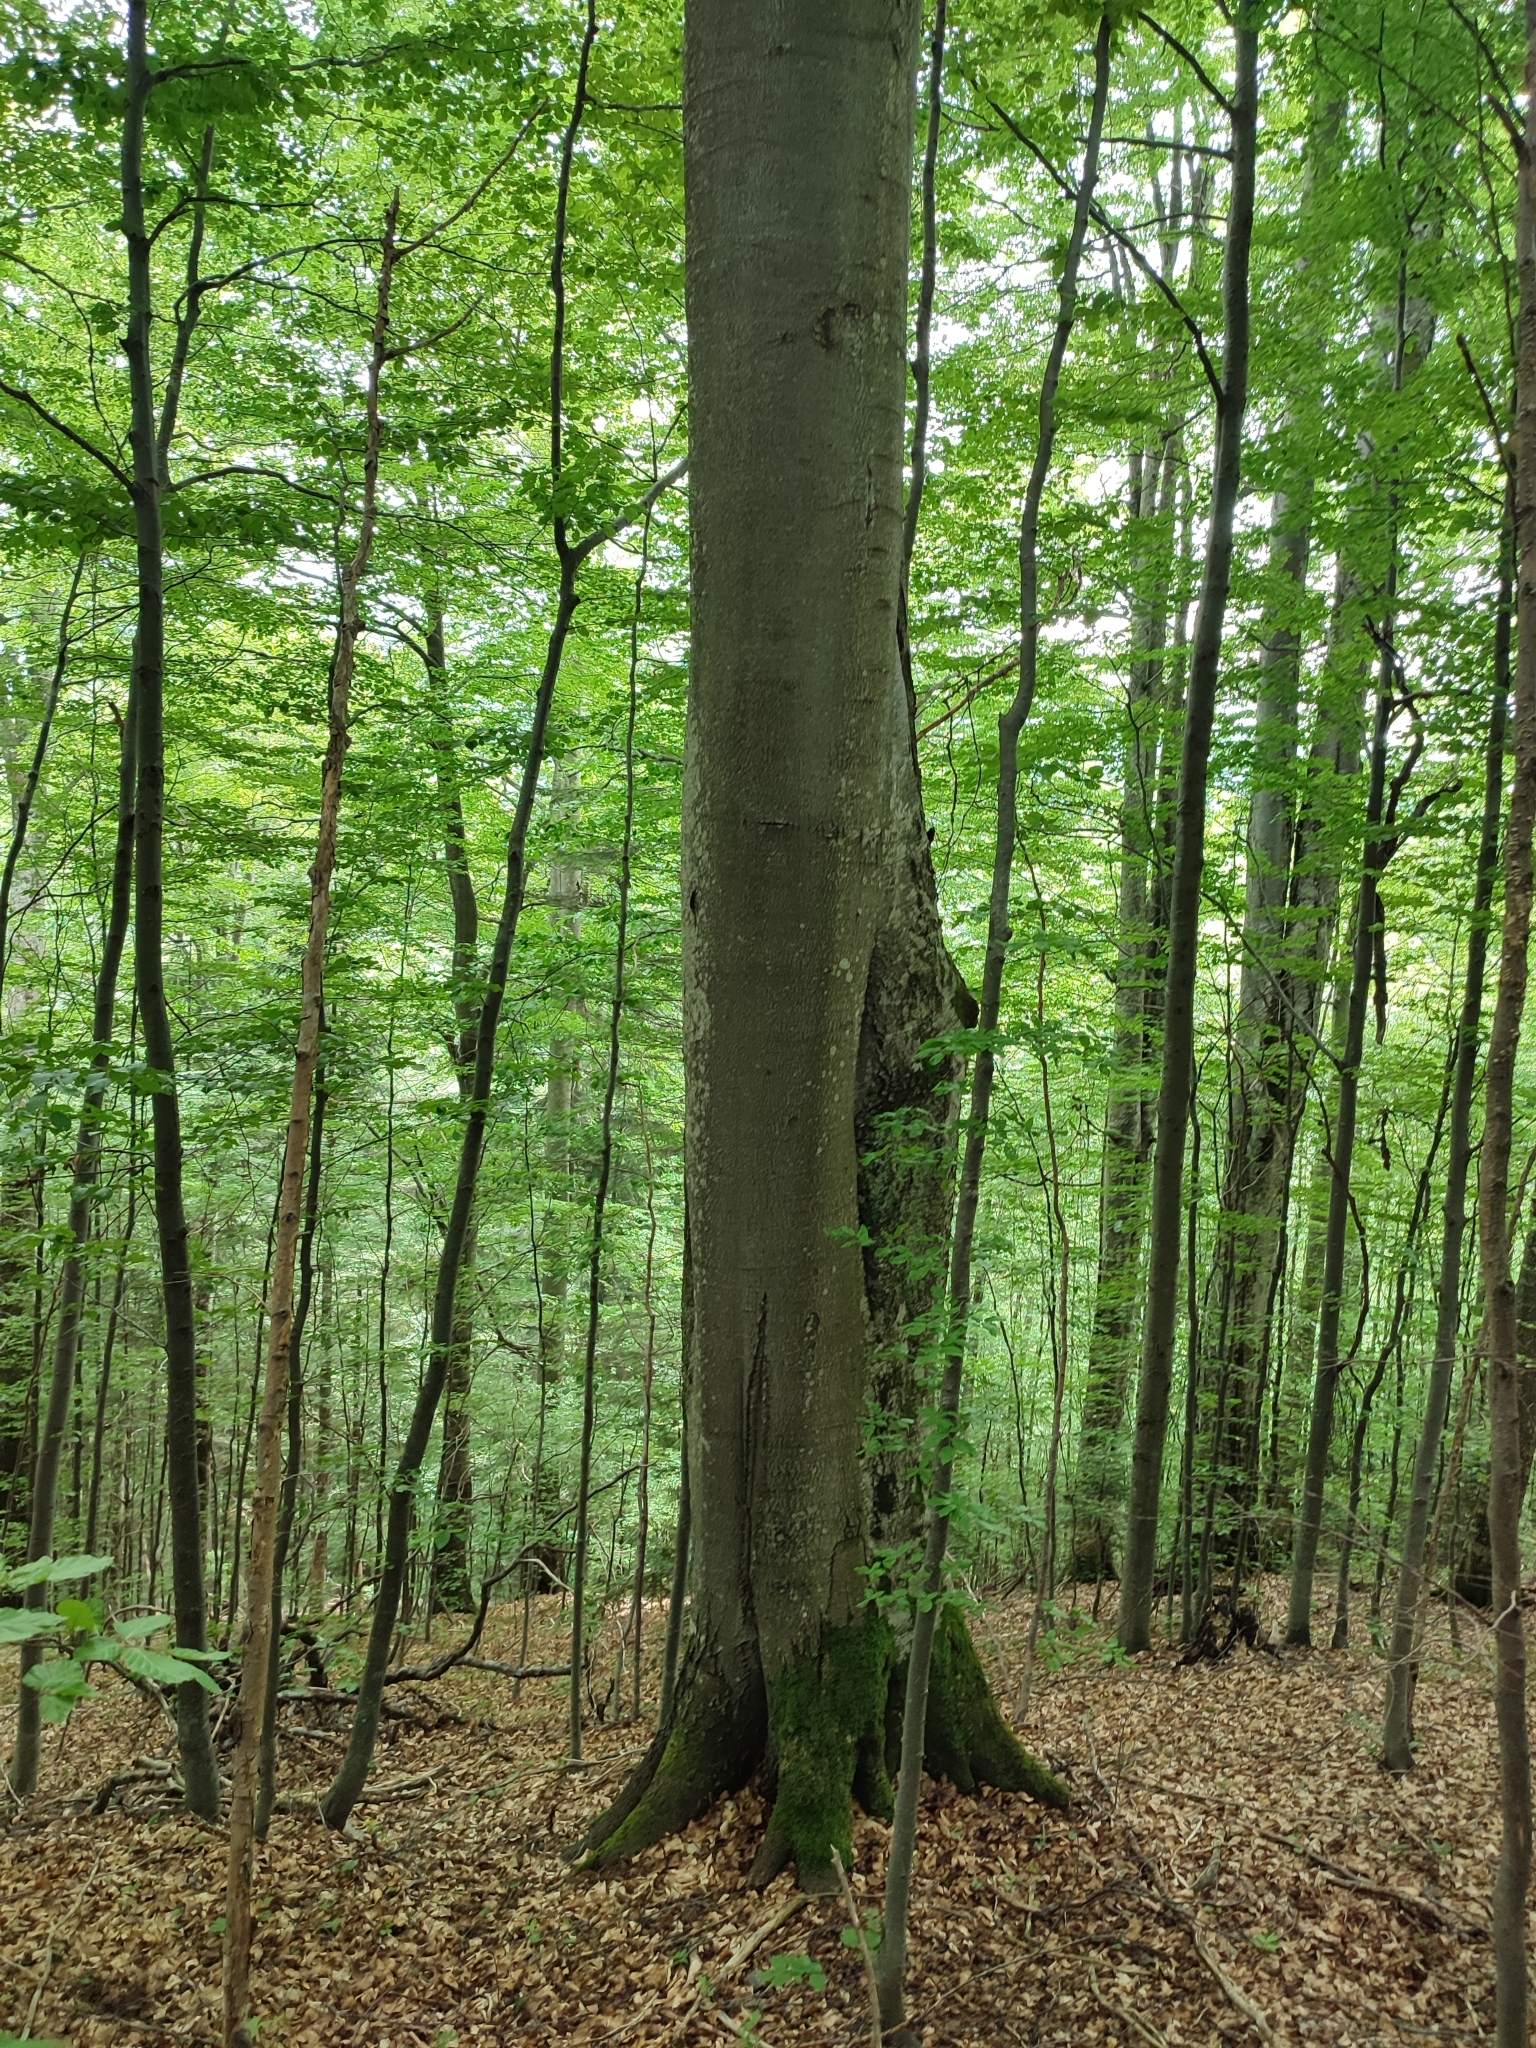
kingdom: Plantae
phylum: Tracheophyta
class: Magnoliopsida
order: Fagales
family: Fagaceae
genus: Fagus
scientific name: Fagus sylvatica
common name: Beech
